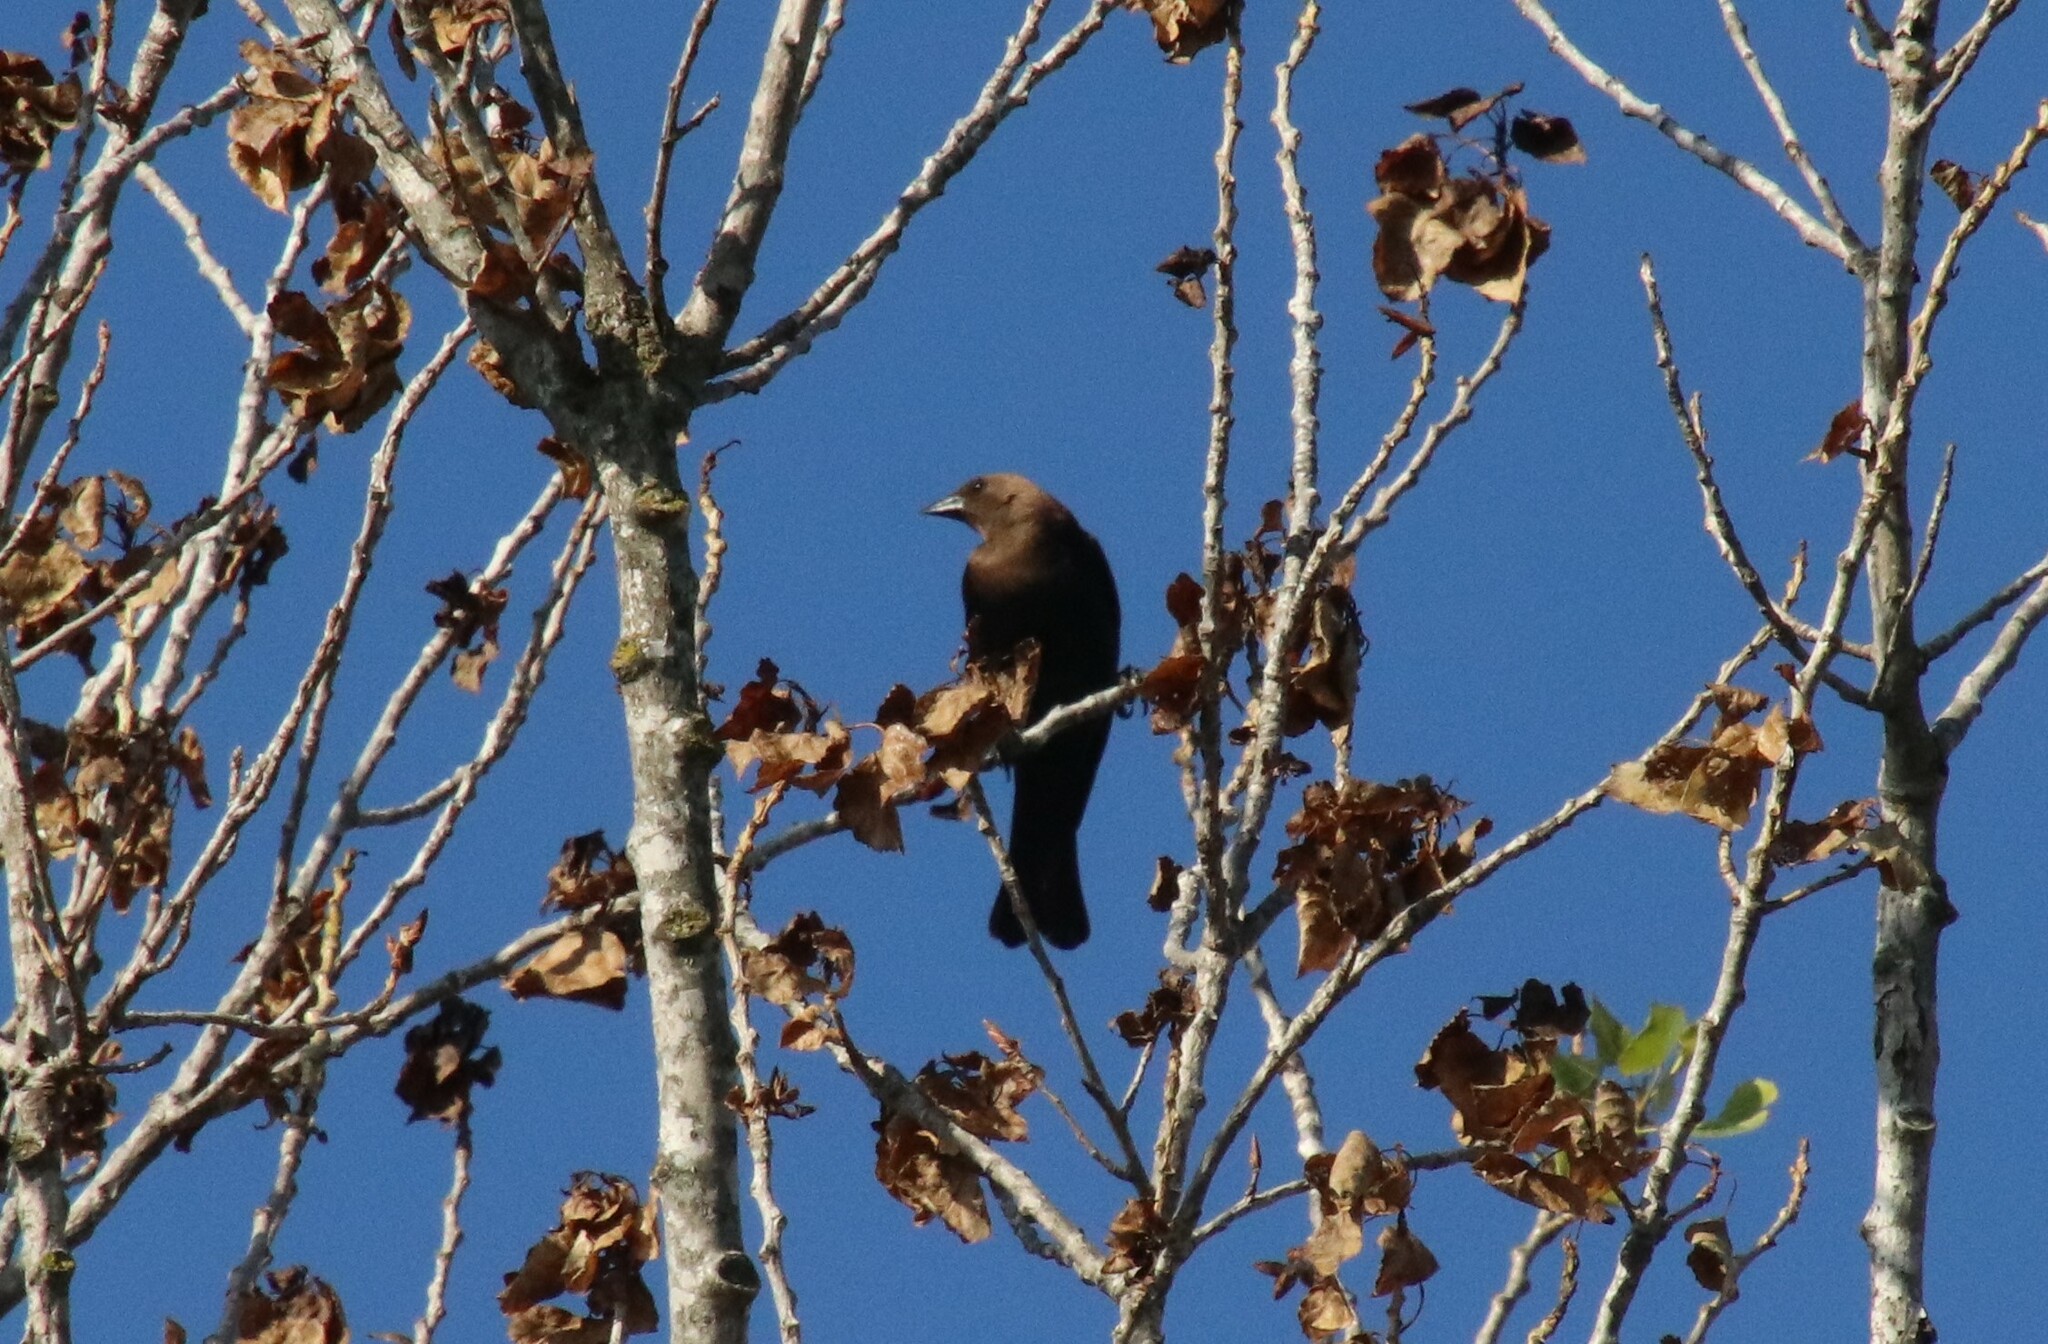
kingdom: Animalia
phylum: Chordata
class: Aves
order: Passeriformes
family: Icteridae
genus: Molothrus
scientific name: Molothrus ater
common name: Brown-headed cowbird
